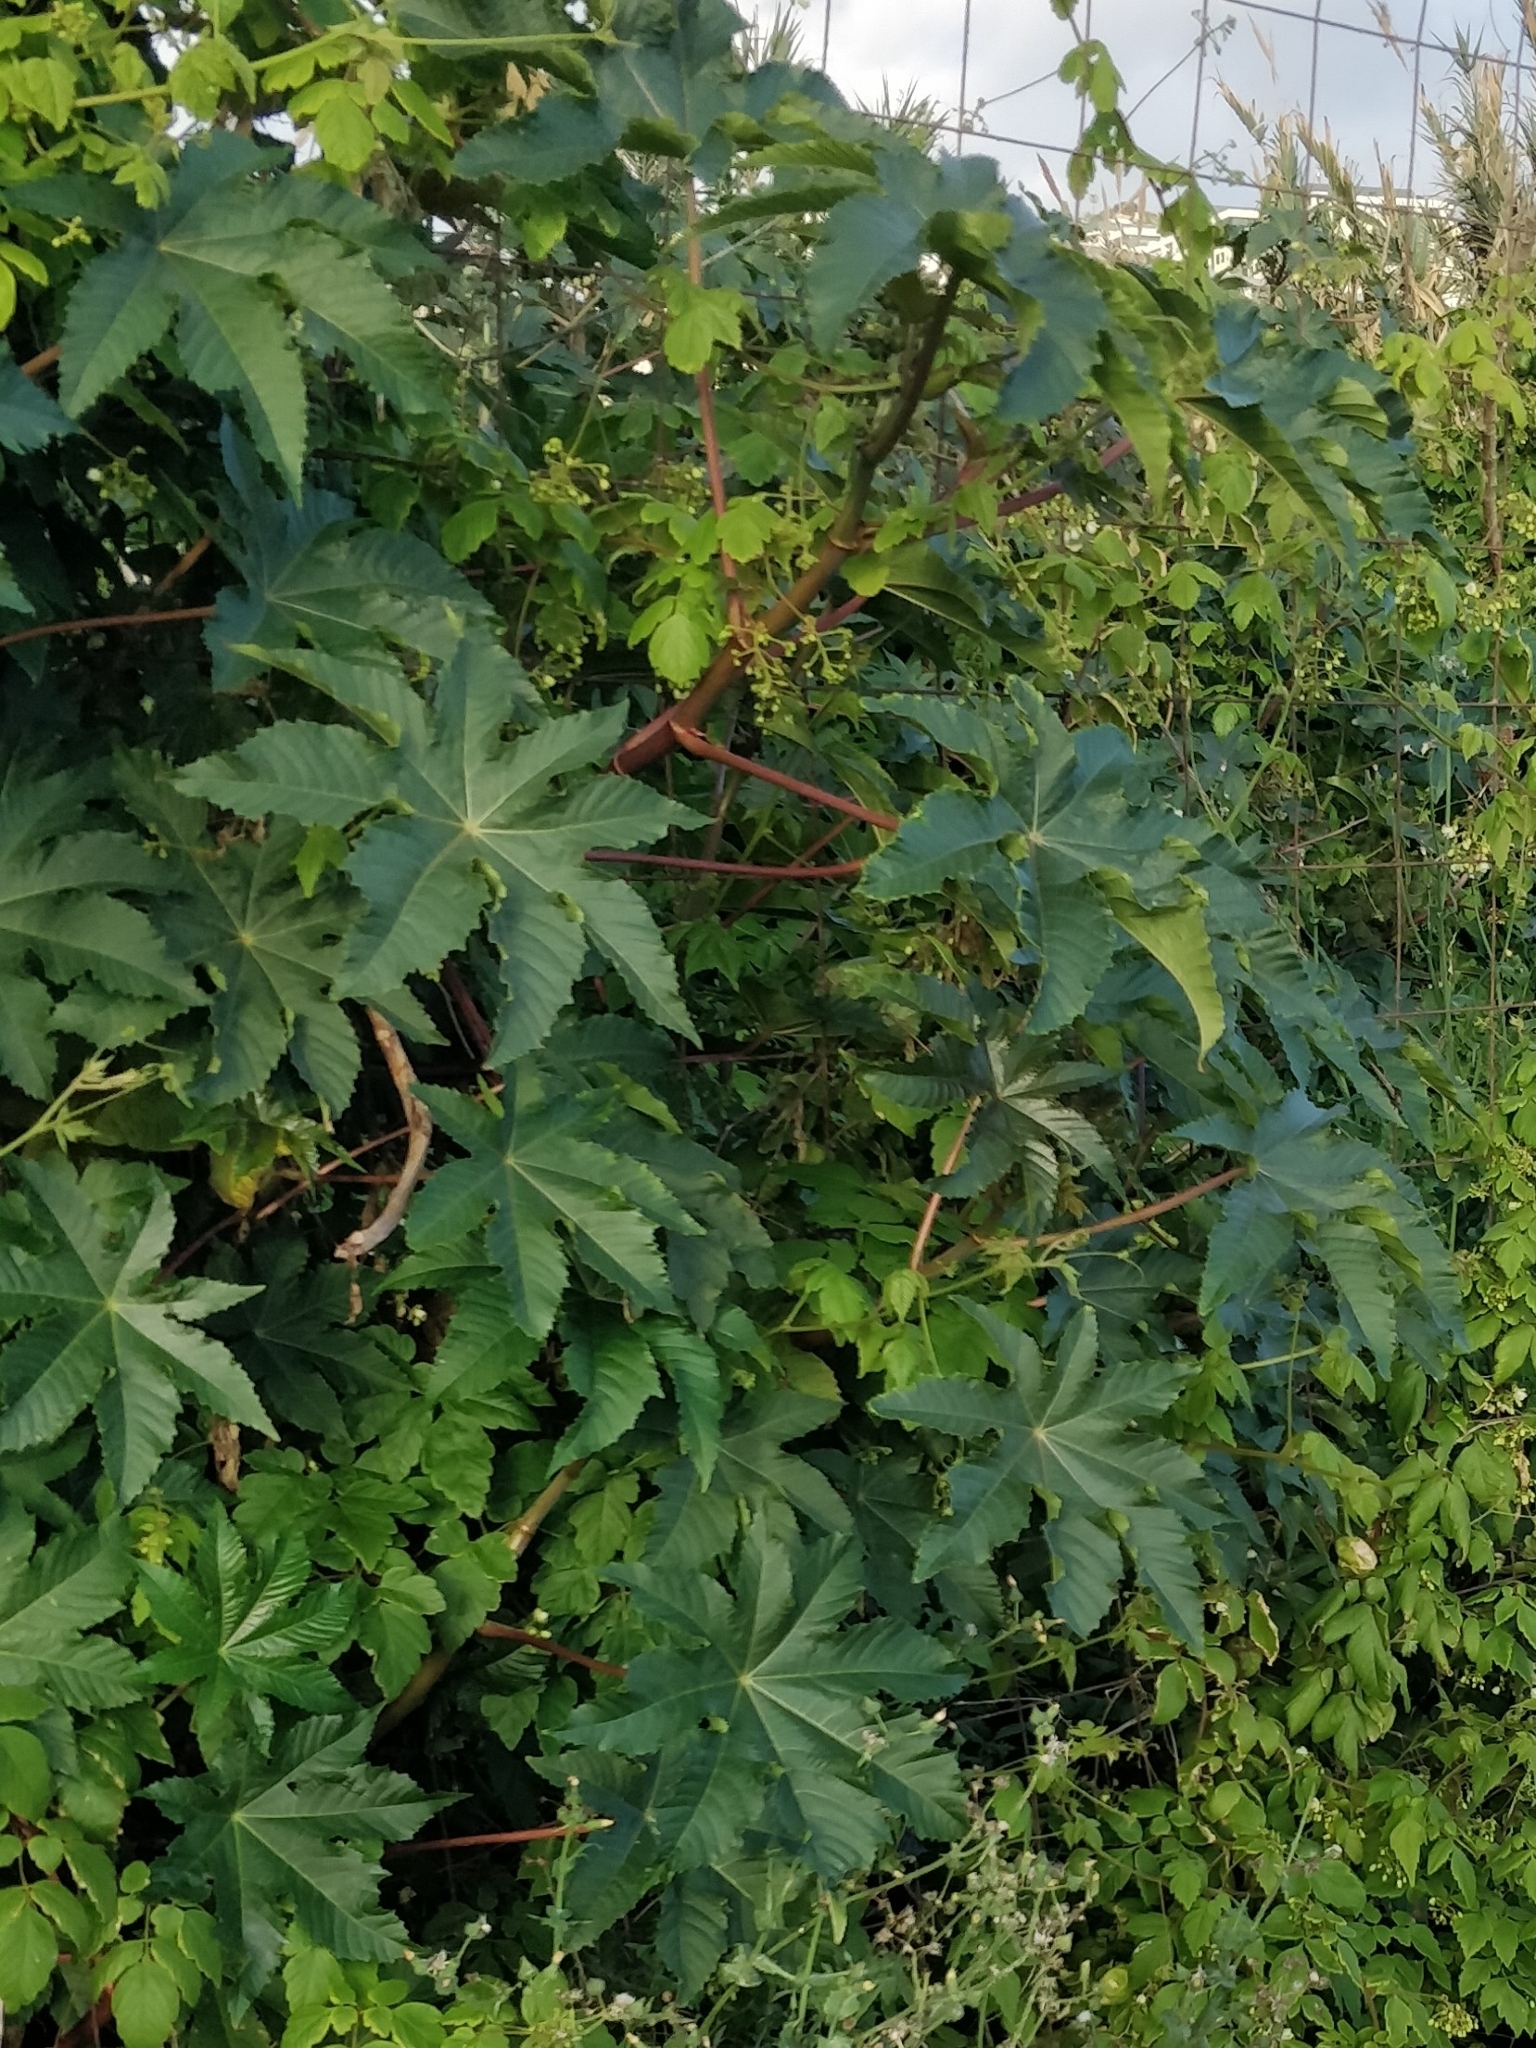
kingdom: Plantae
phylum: Tracheophyta
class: Magnoliopsida
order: Malpighiales
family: Euphorbiaceae
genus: Ricinus
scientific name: Ricinus communis
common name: Castor-oil-plant
